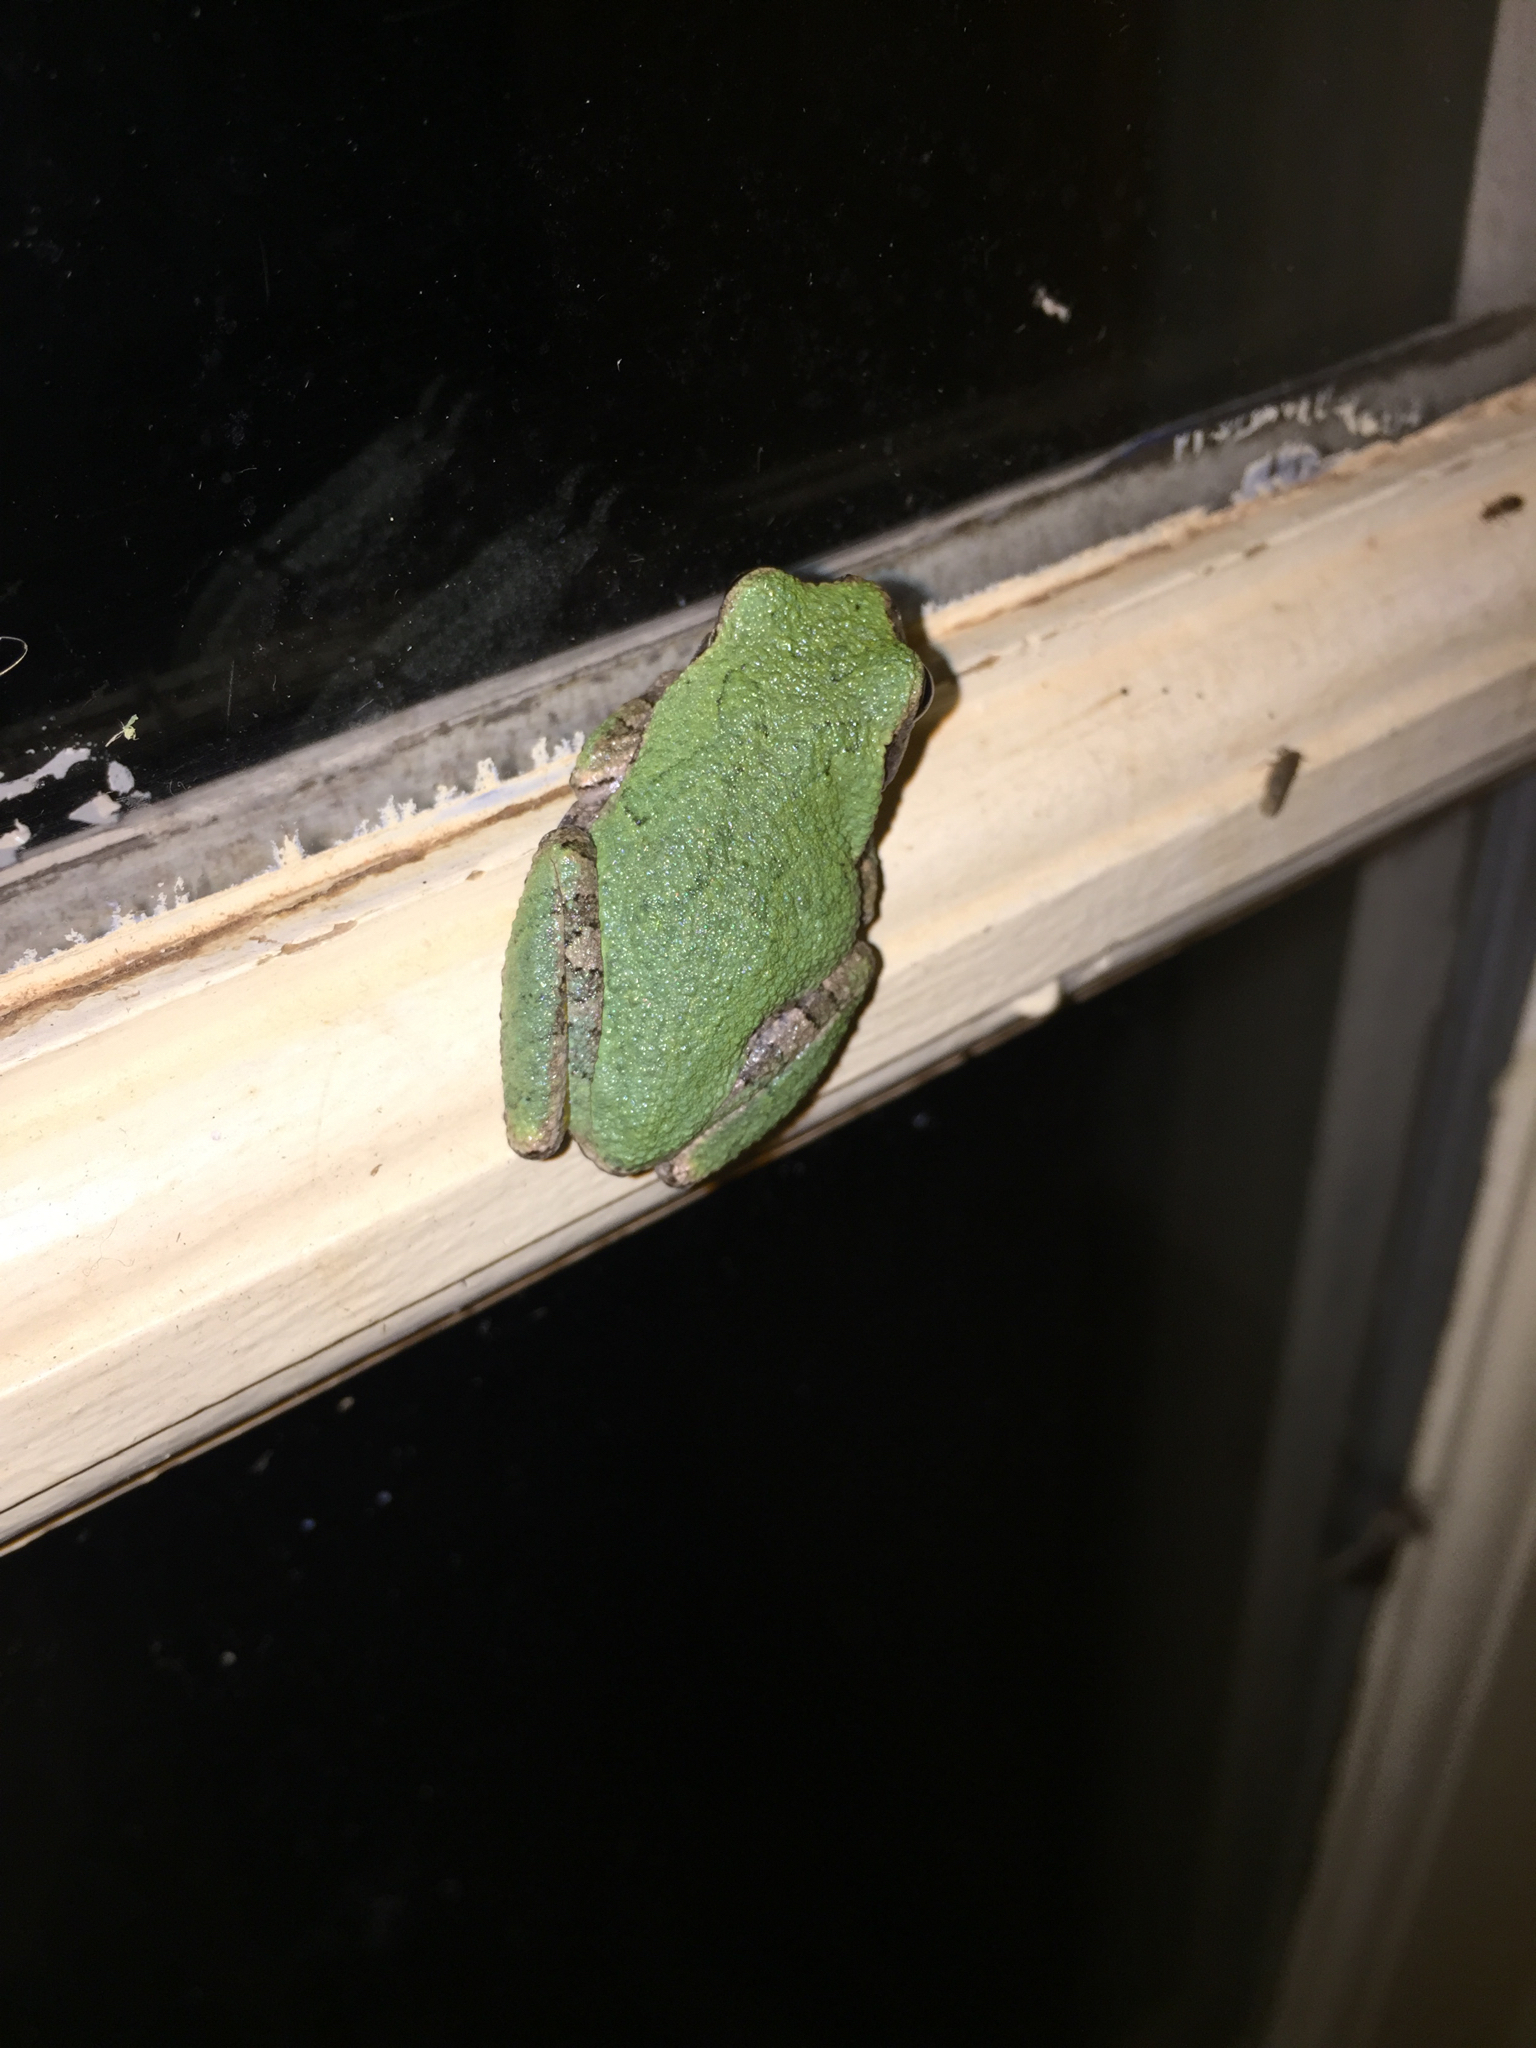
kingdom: Animalia
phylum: Chordata
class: Amphibia
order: Anura
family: Hylidae
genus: Hyla
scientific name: Hyla
